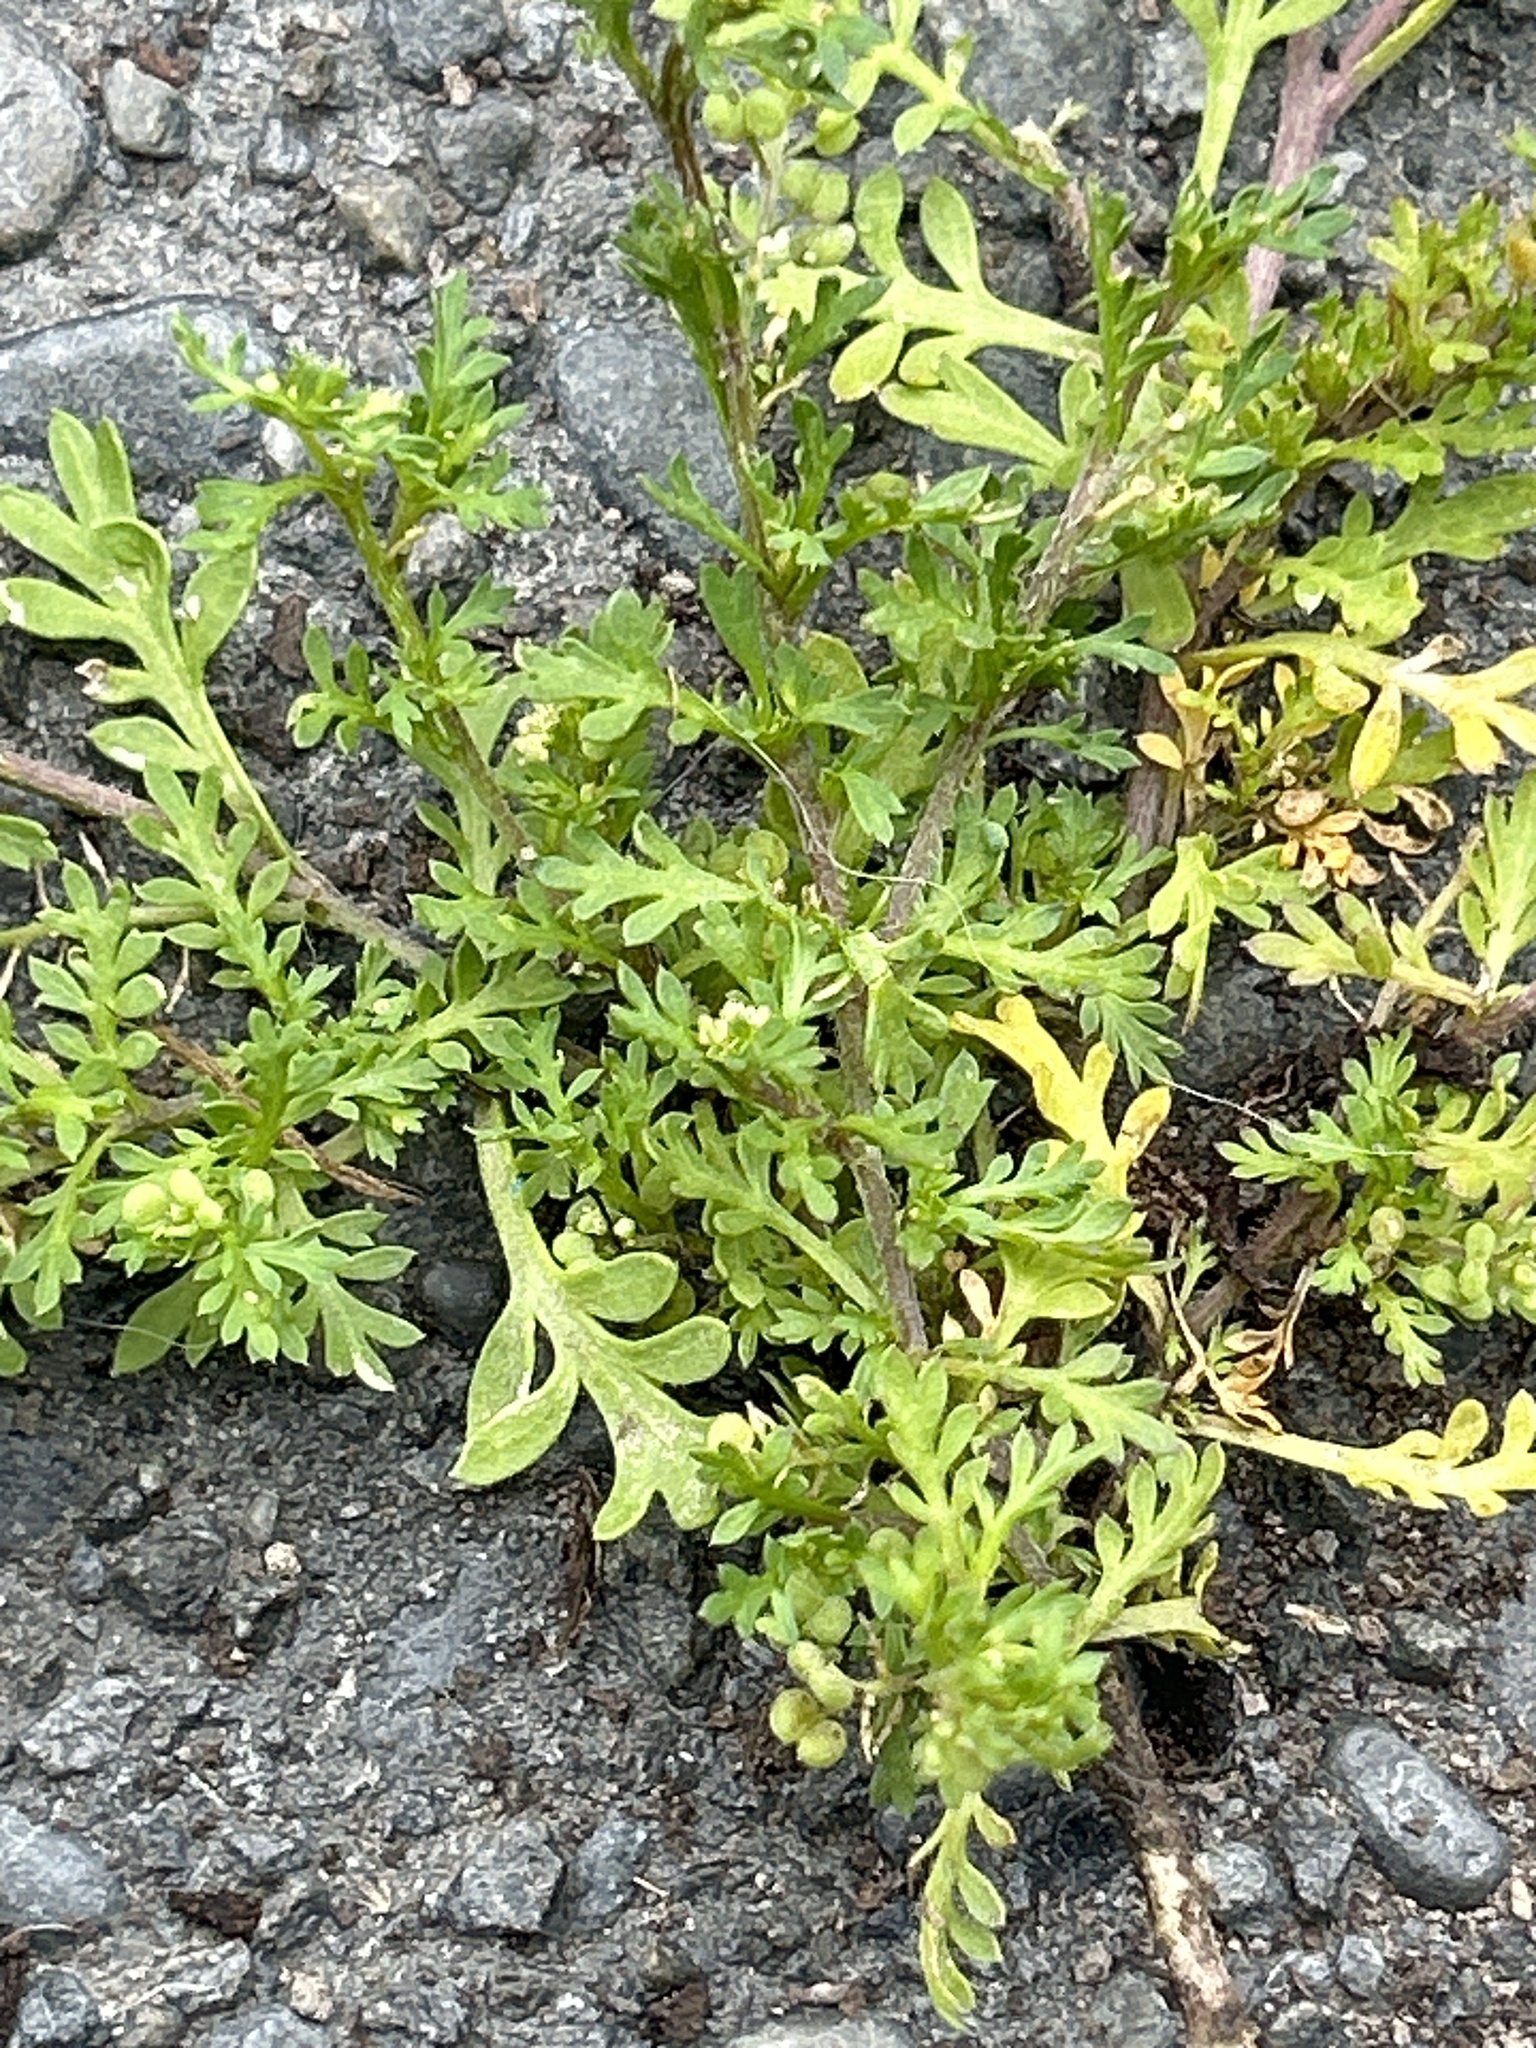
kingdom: Plantae
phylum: Tracheophyta
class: Magnoliopsida
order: Brassicales
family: Brassicaceae
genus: Lepidium
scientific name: Lepidium didymum
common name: Lesser swinecress
